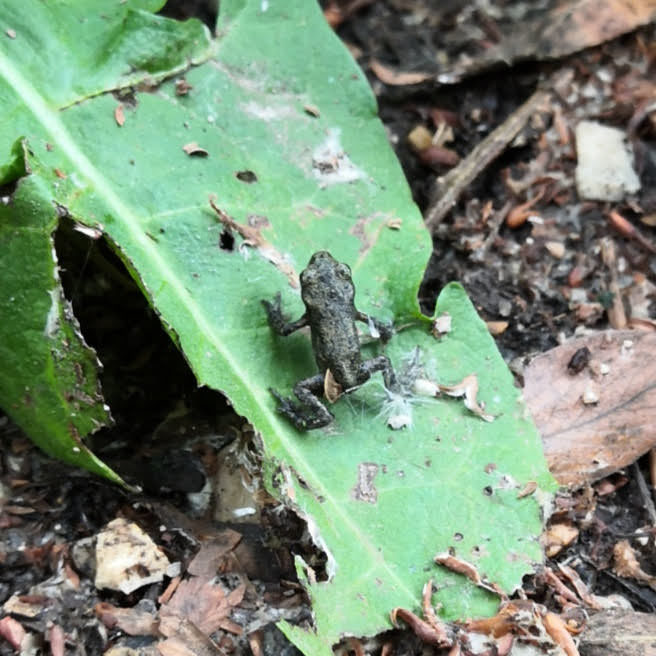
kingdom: Animalia
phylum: Chordata
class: Amphibia
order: Anura
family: Bufonidae
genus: Bufo
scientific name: Bufo bufo
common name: Common toad
